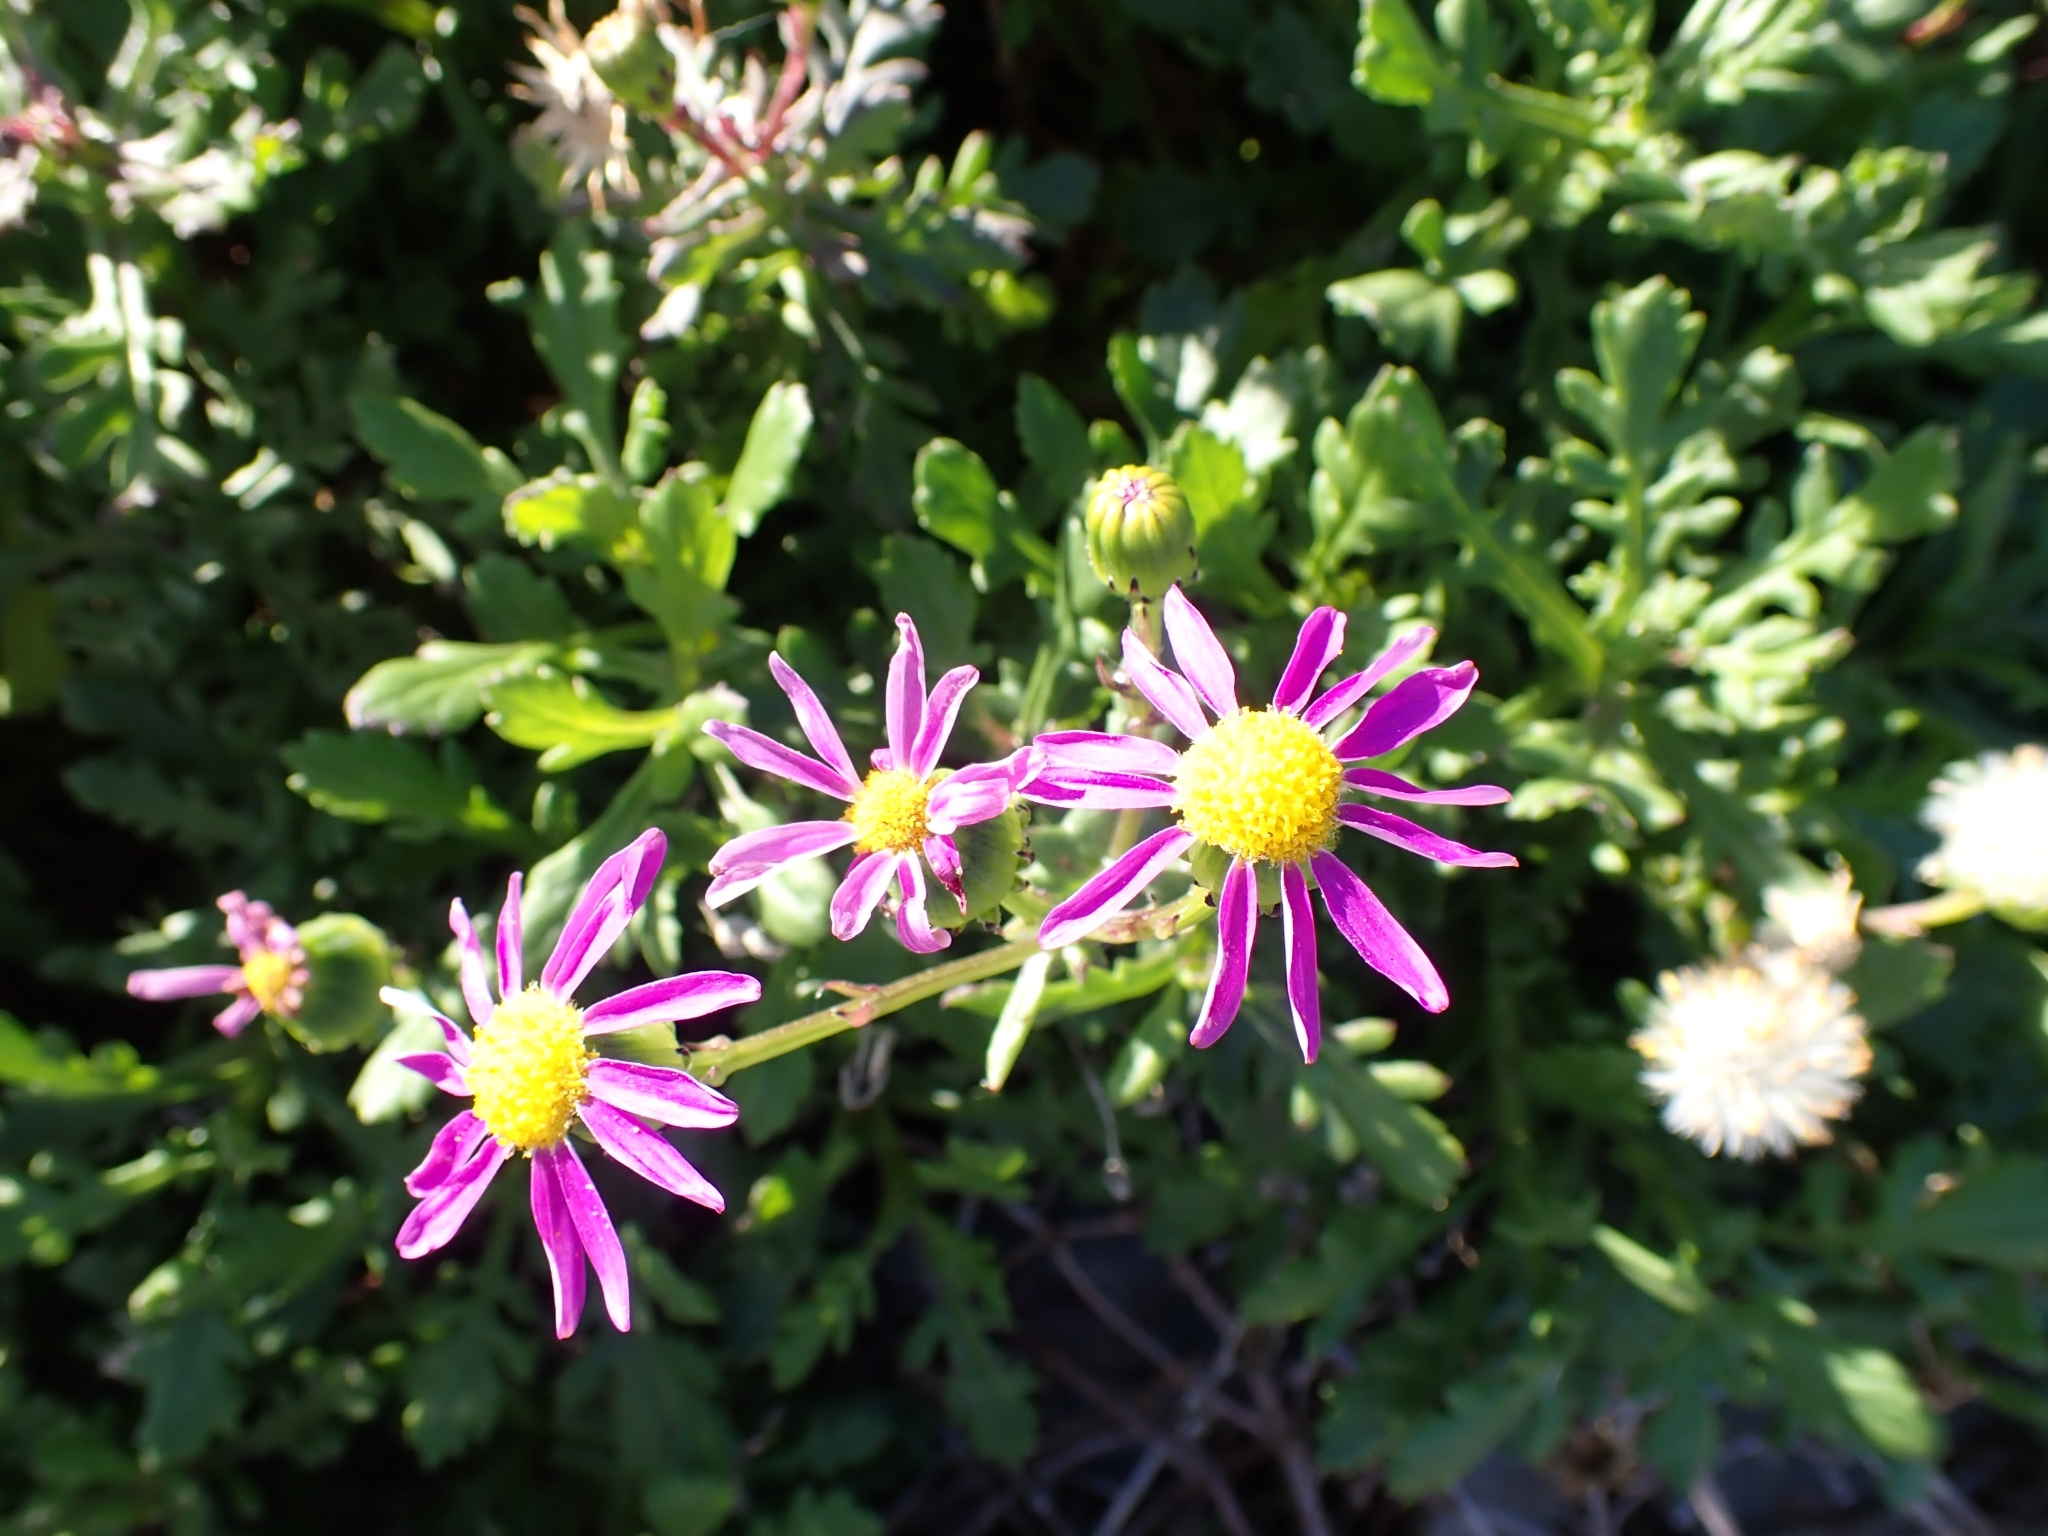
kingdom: Plantae
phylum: Tracheophyta
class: Magnoliopsida
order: Asterales
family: Asteraceae
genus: Senecio
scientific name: Senecio elegans
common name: Purple groundsel
